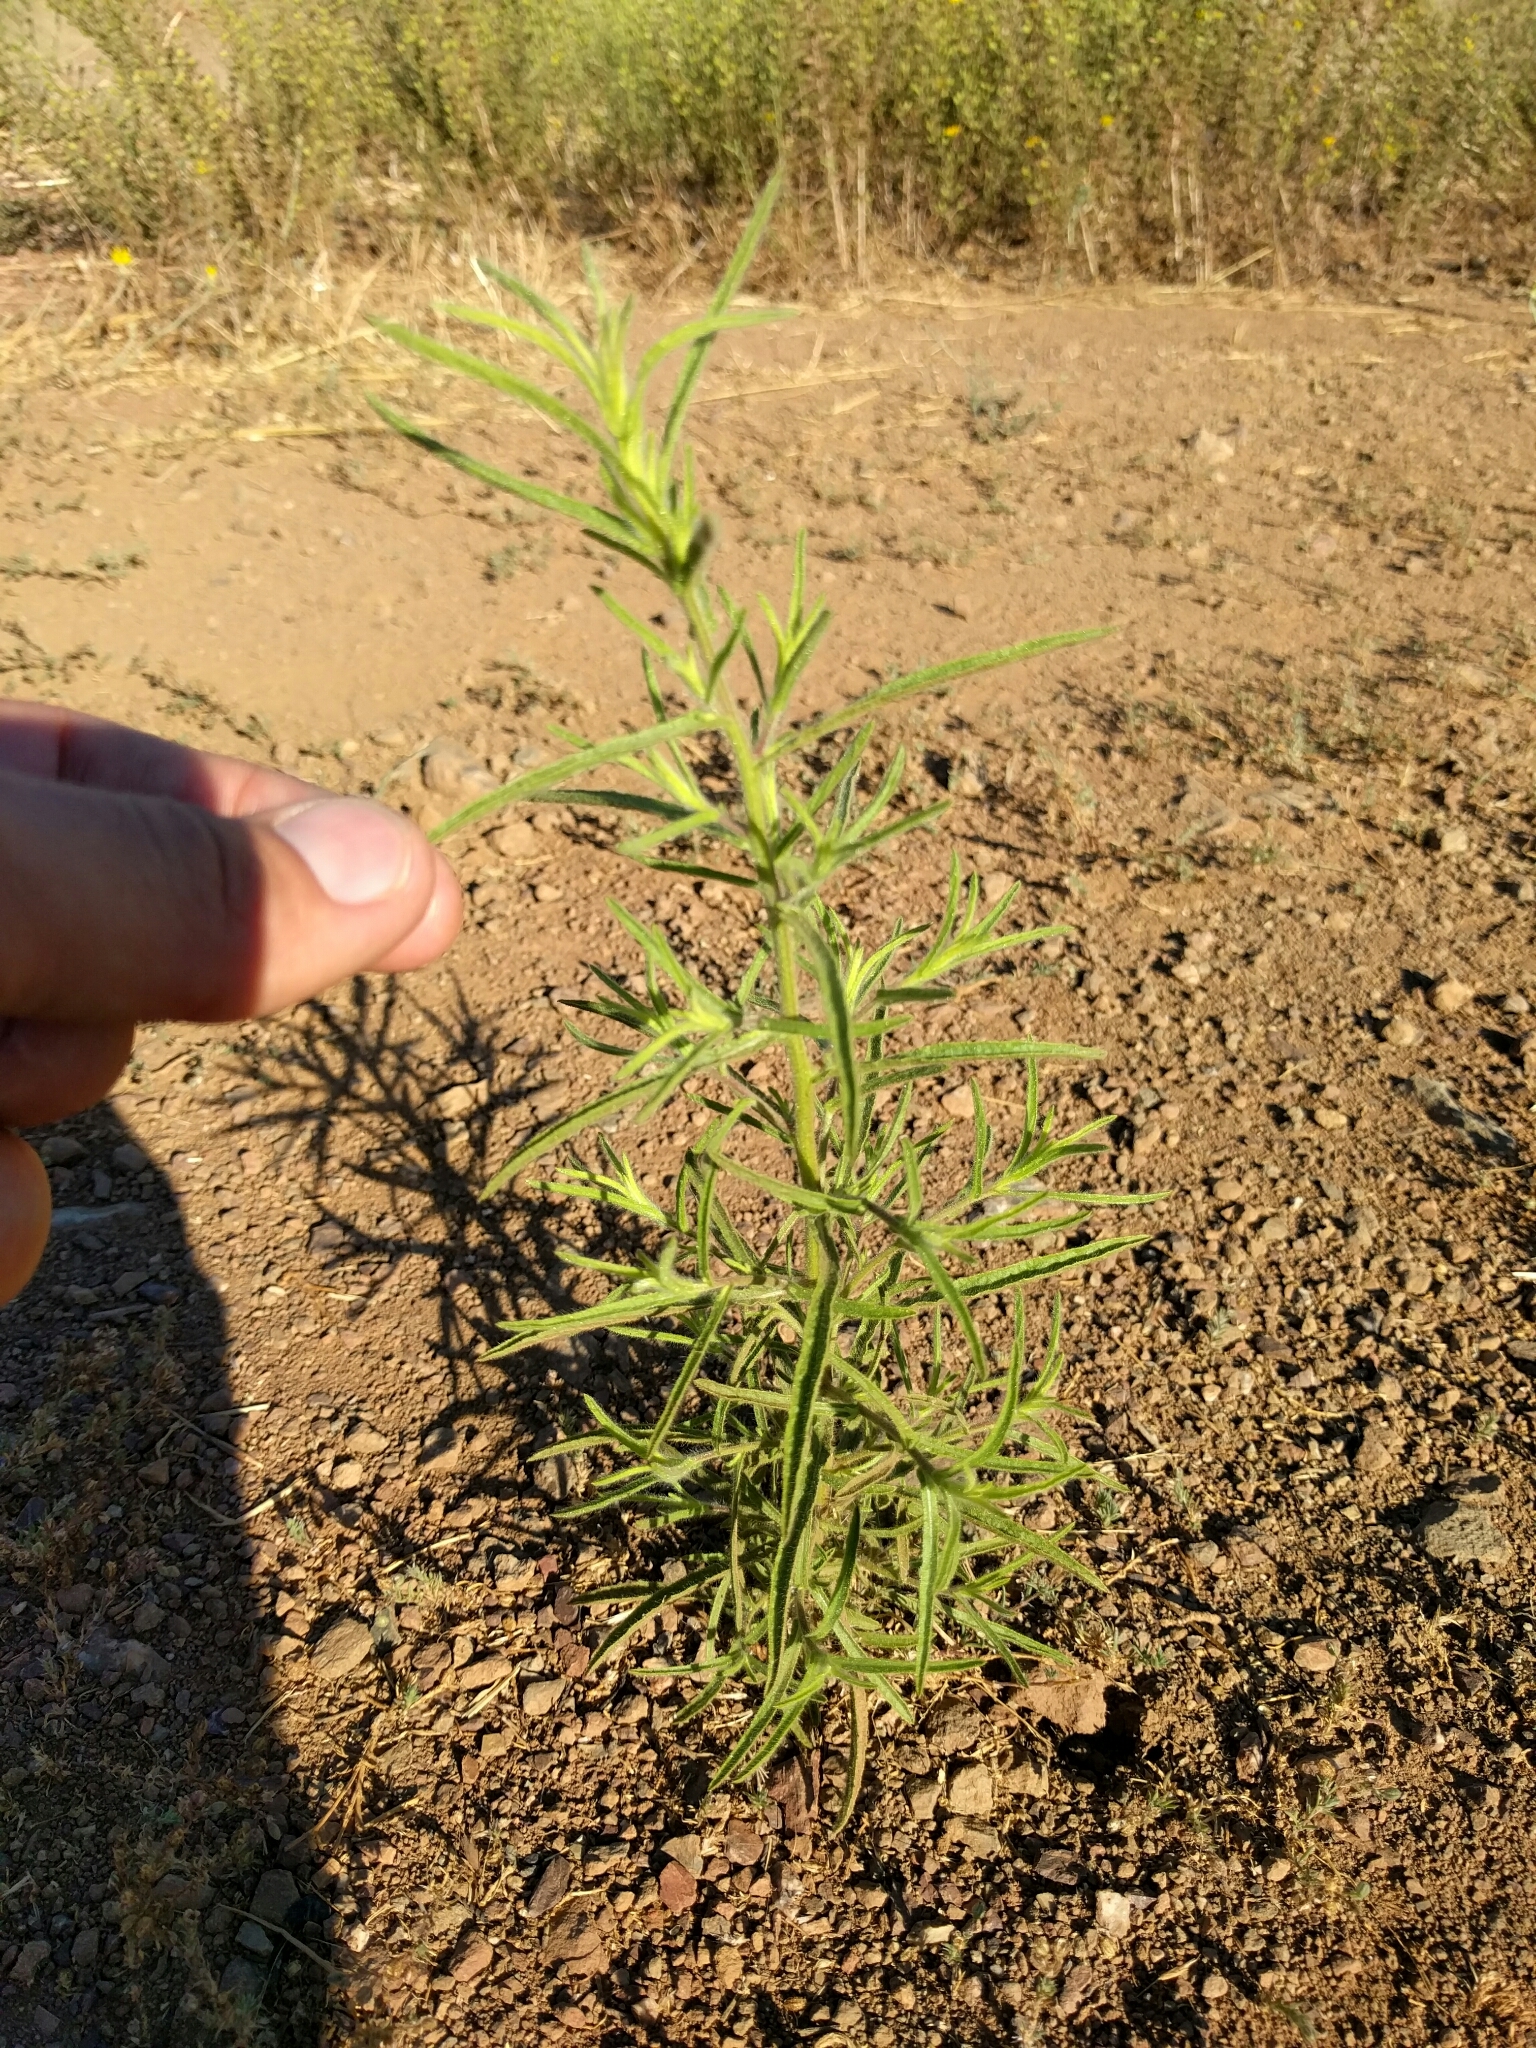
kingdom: Plantae
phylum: Tracheophyta
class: Magnoliopsida
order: Asterales
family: Asteraceae
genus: Dittrichia
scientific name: Dittrichia graveolens
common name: Stinking fleabane
